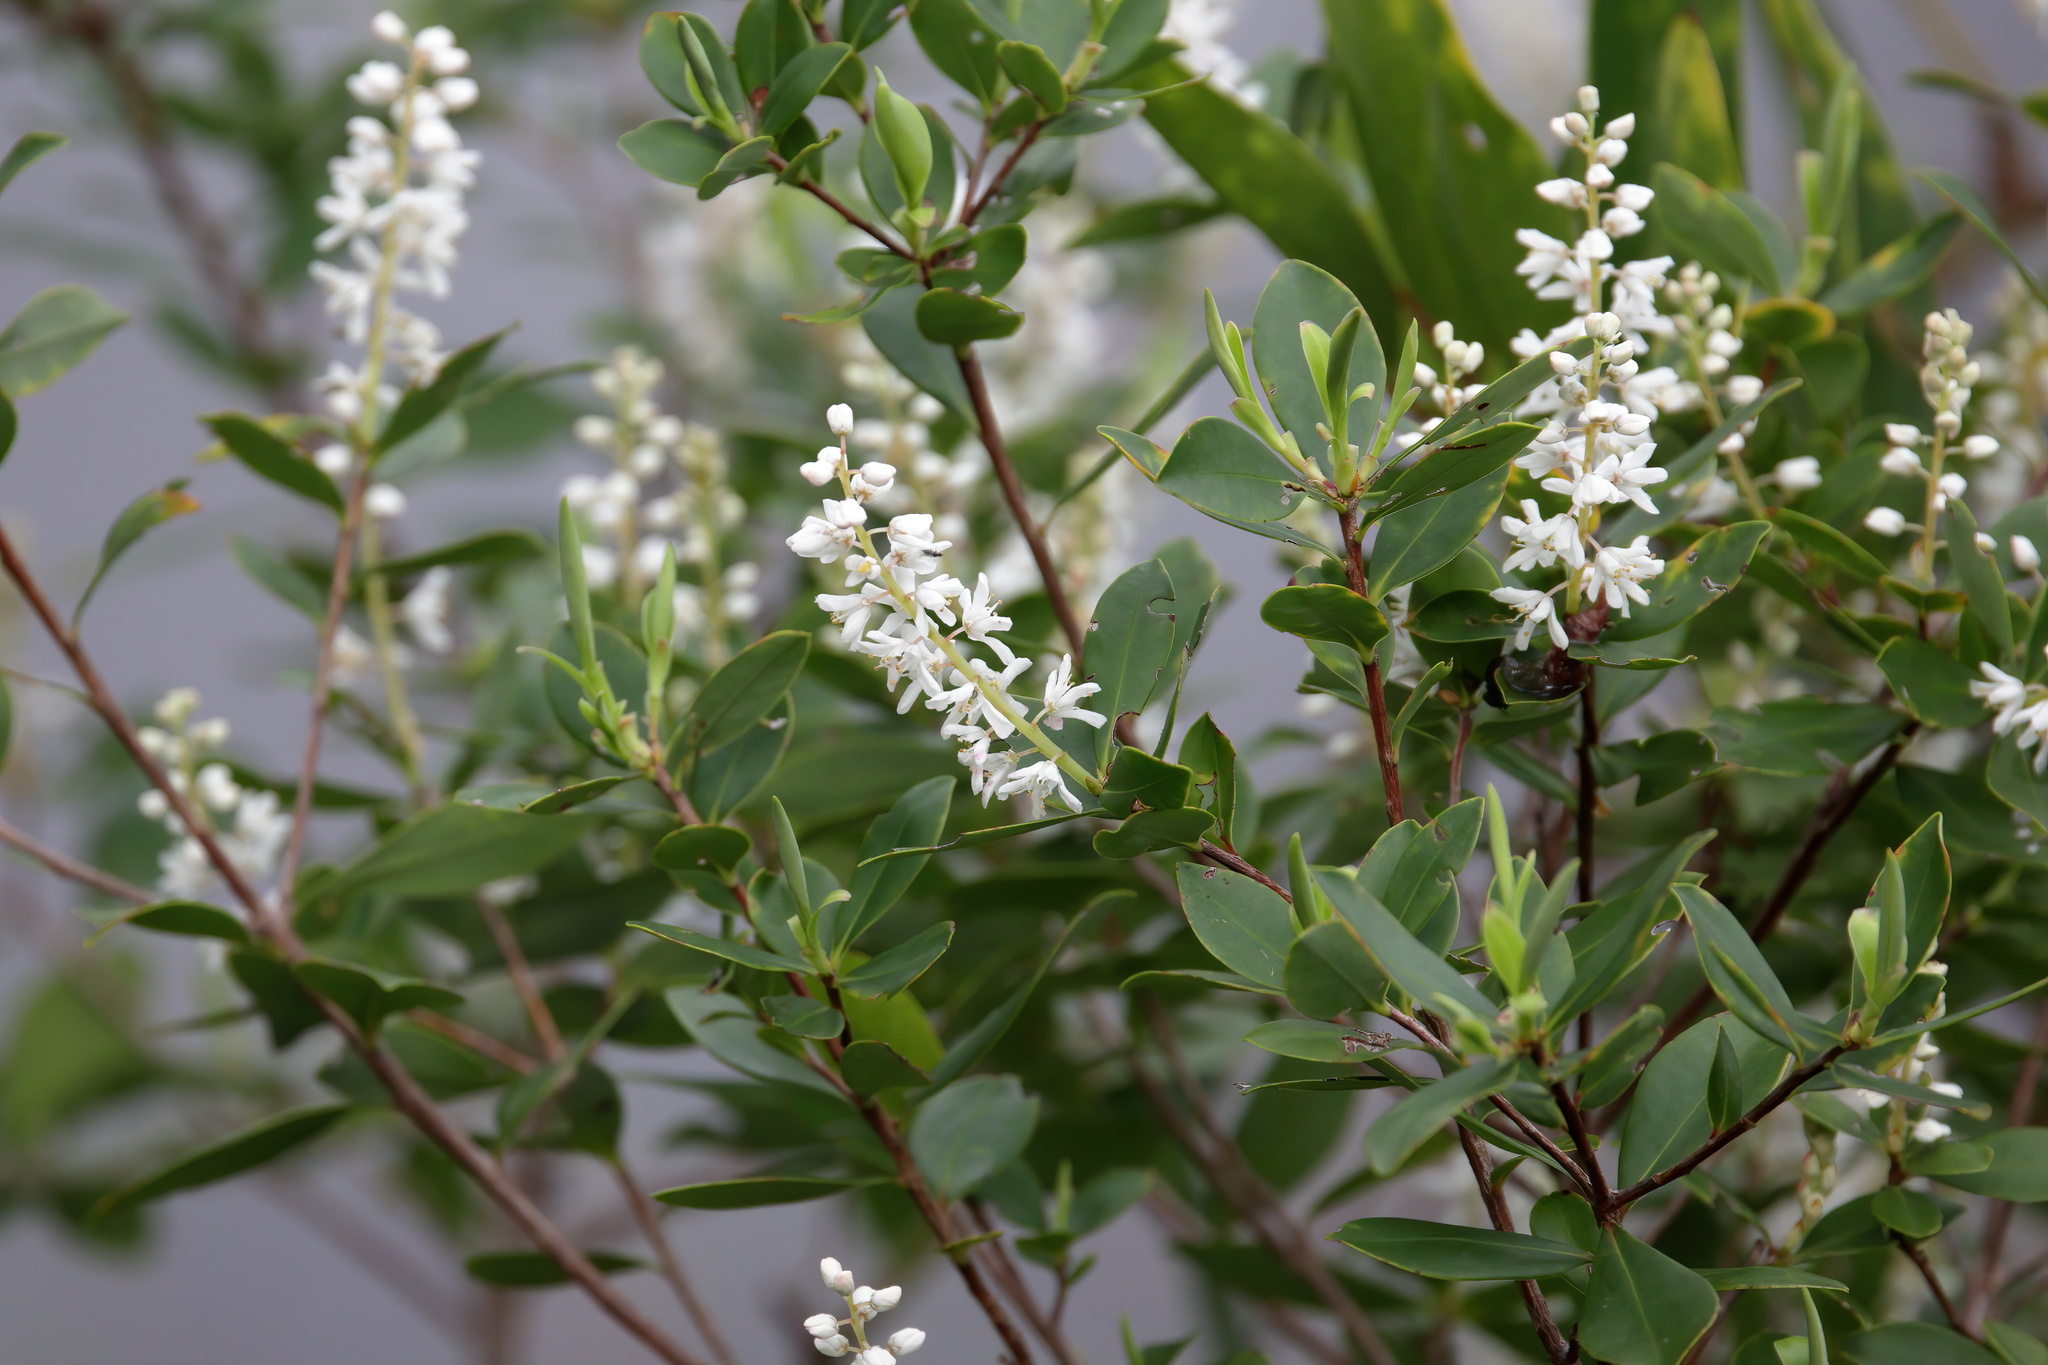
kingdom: Plantae
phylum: Tracheophyta
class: Magnoliopsida
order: Ericales
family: Cyrillaceae
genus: Cliftonia
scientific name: Cliftonia monophylla
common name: Titi
